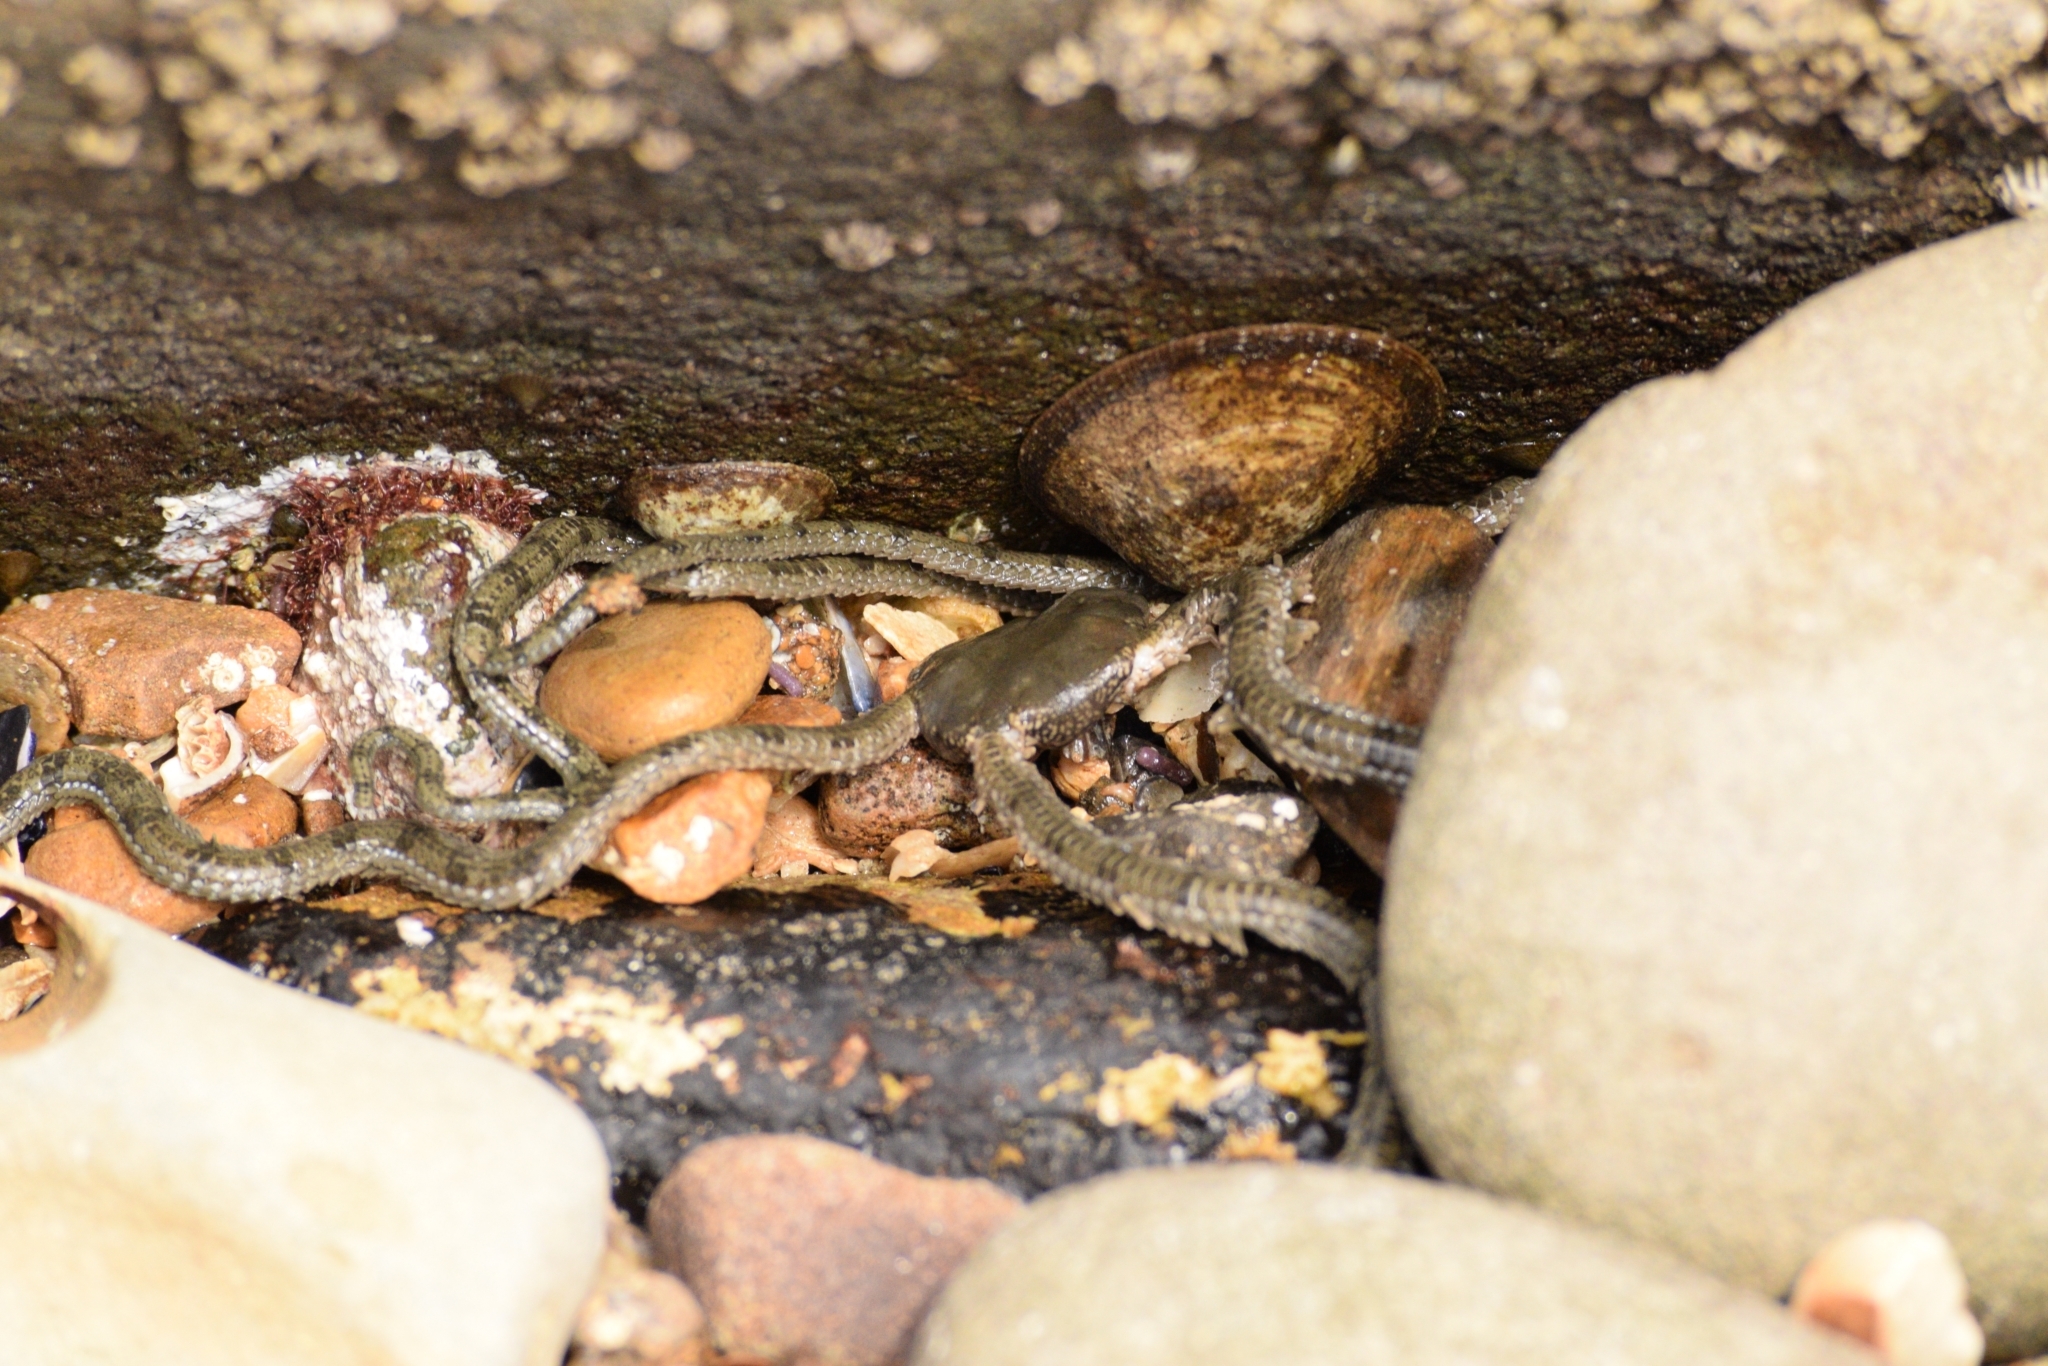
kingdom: Animalia
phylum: Echinodermata
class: Ophiuroidea
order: Amphilepidida
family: Ophionereididae
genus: Ophionereis
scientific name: Ophionereis annulata
